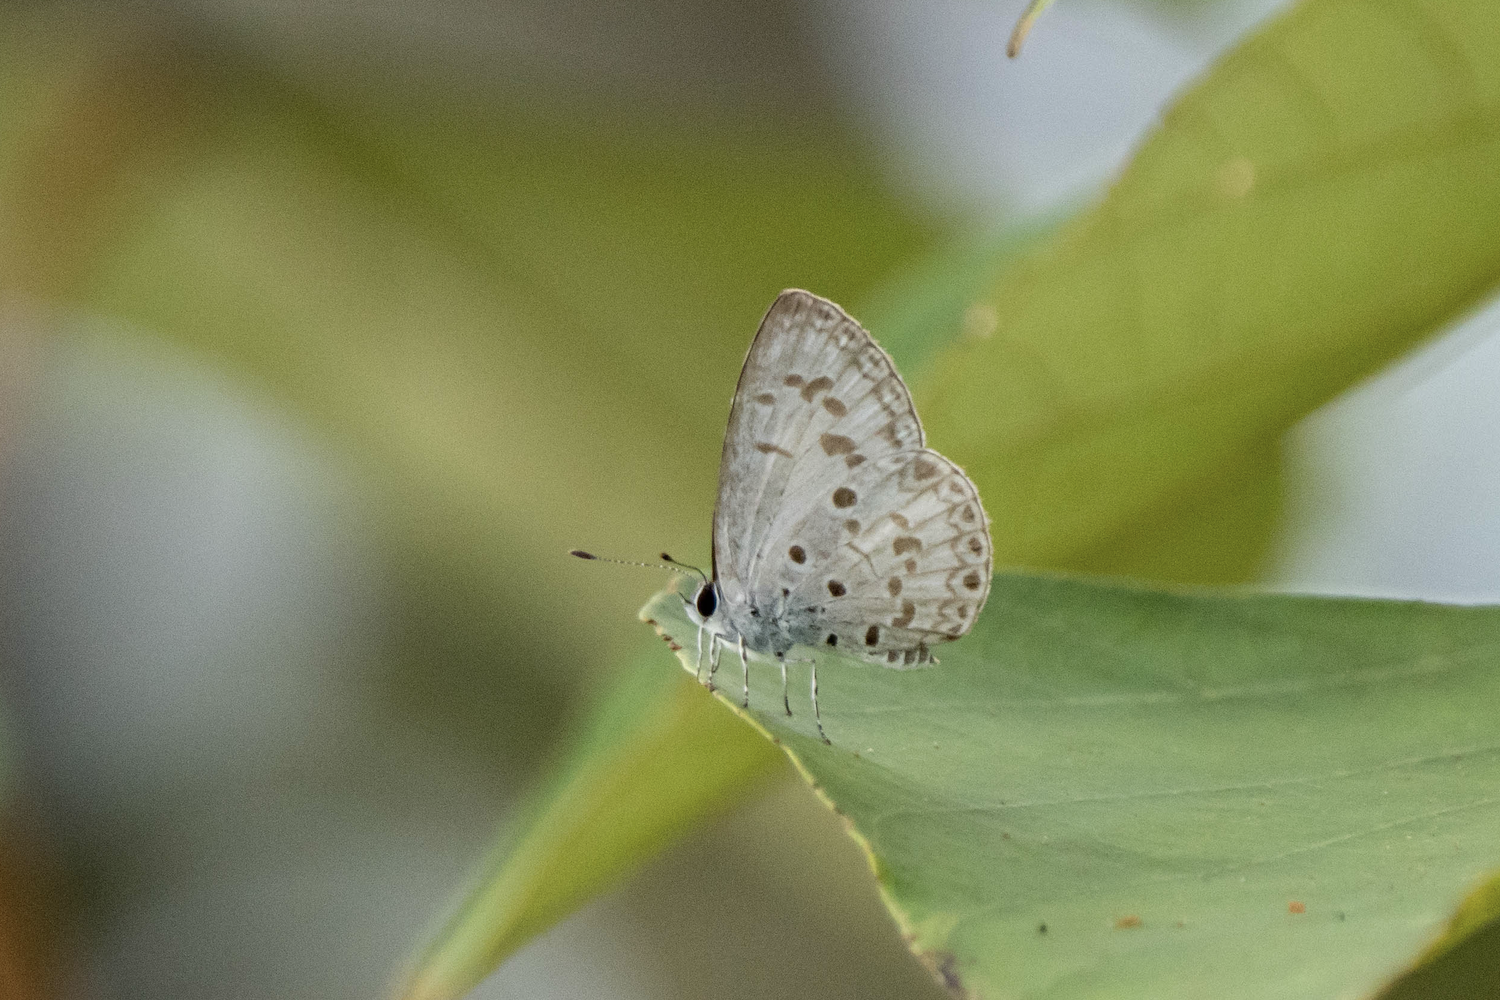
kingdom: Animalia
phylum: Arthropoda
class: Insecta
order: Lepidoptera
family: Lycaenidae
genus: Acytolepis
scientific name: Acytolepis puspa
